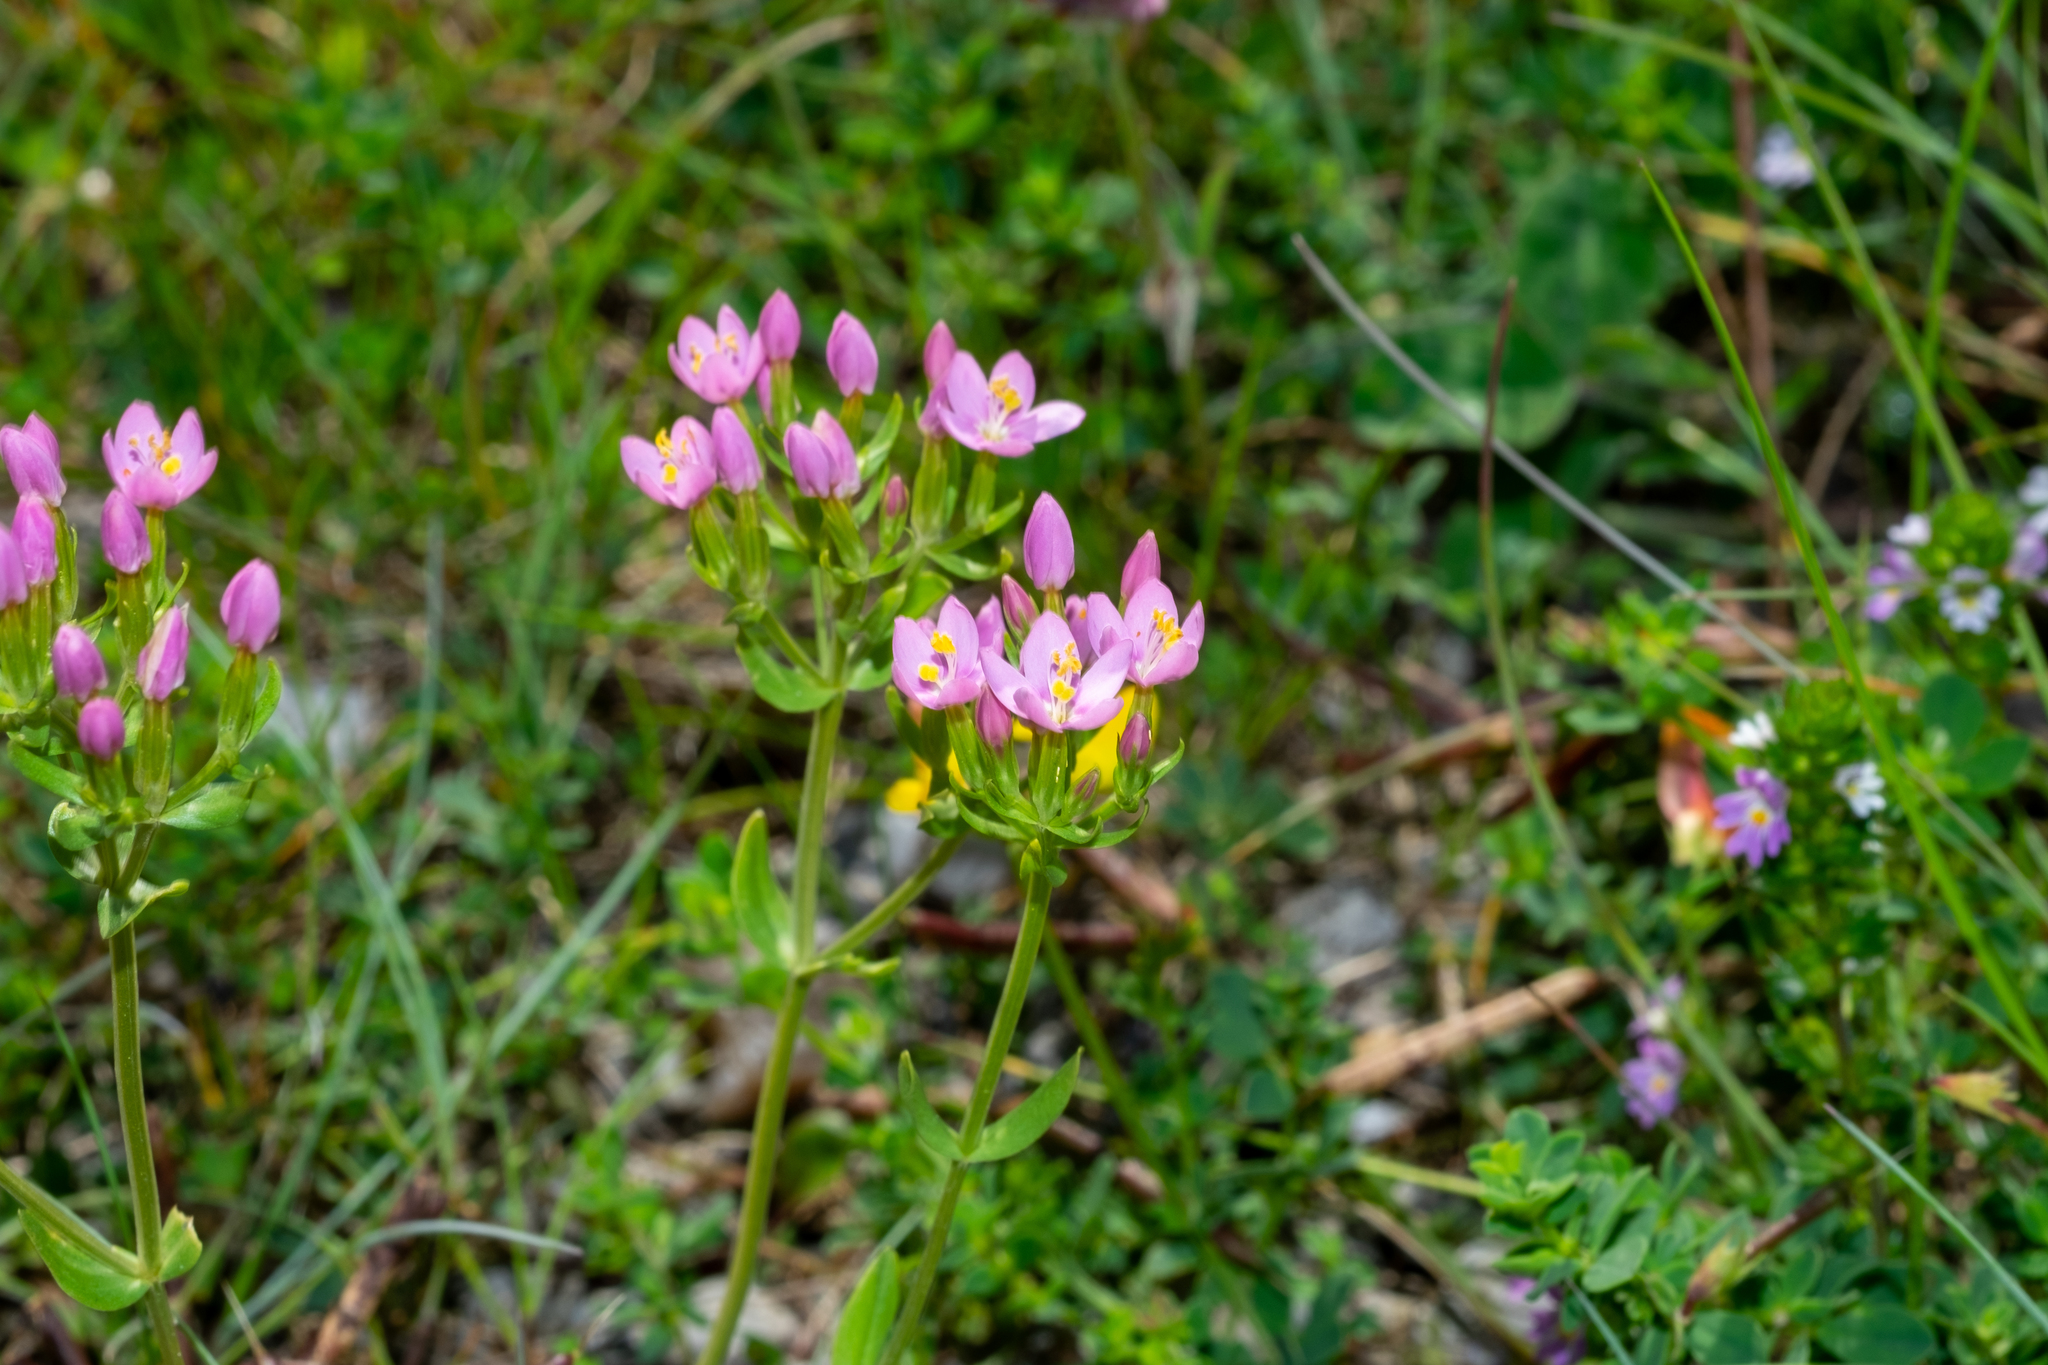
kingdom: Plantae
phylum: Tracheophyta
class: Magnoliopsida
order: Gentianales
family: Gentianaceae
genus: Centaurium
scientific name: Centaurium erythraea
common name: Common centaury
